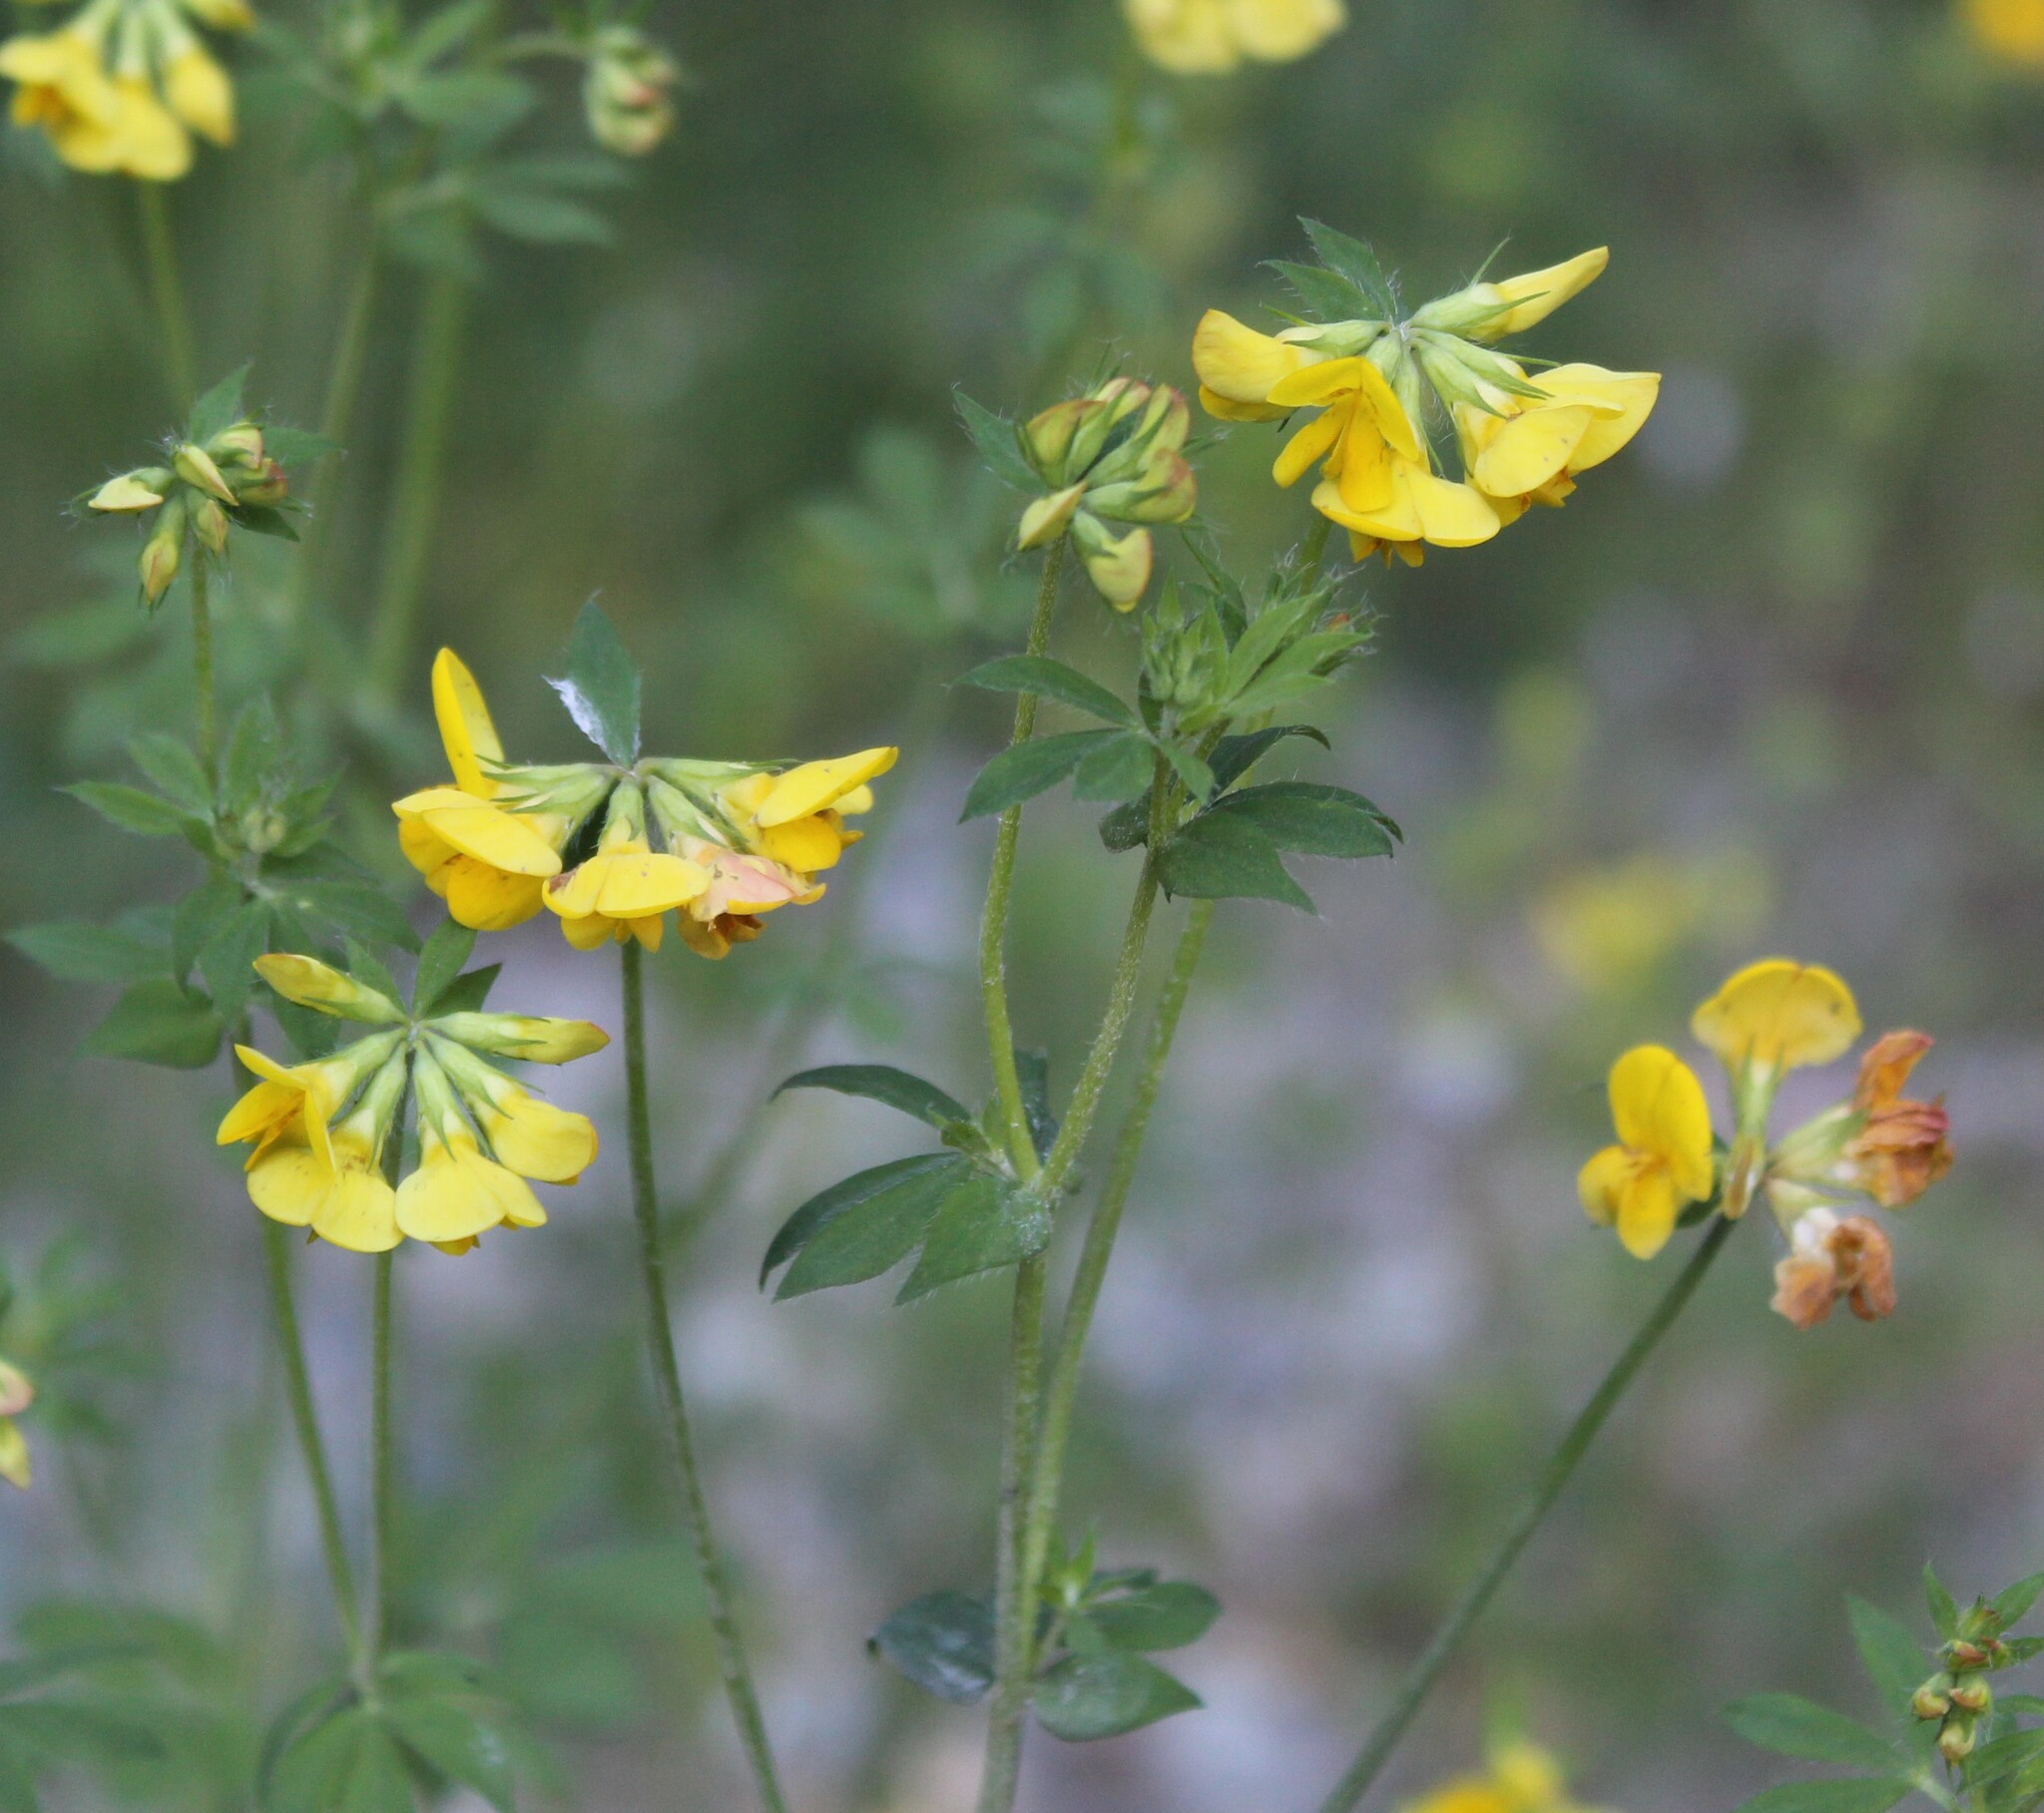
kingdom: Plantae
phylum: Tracheophyta
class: Magnoliopsida
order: Fabales
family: Fabaceae
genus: Lotus
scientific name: Lotus corniculatus
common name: Common bird's-foot-trefoil
